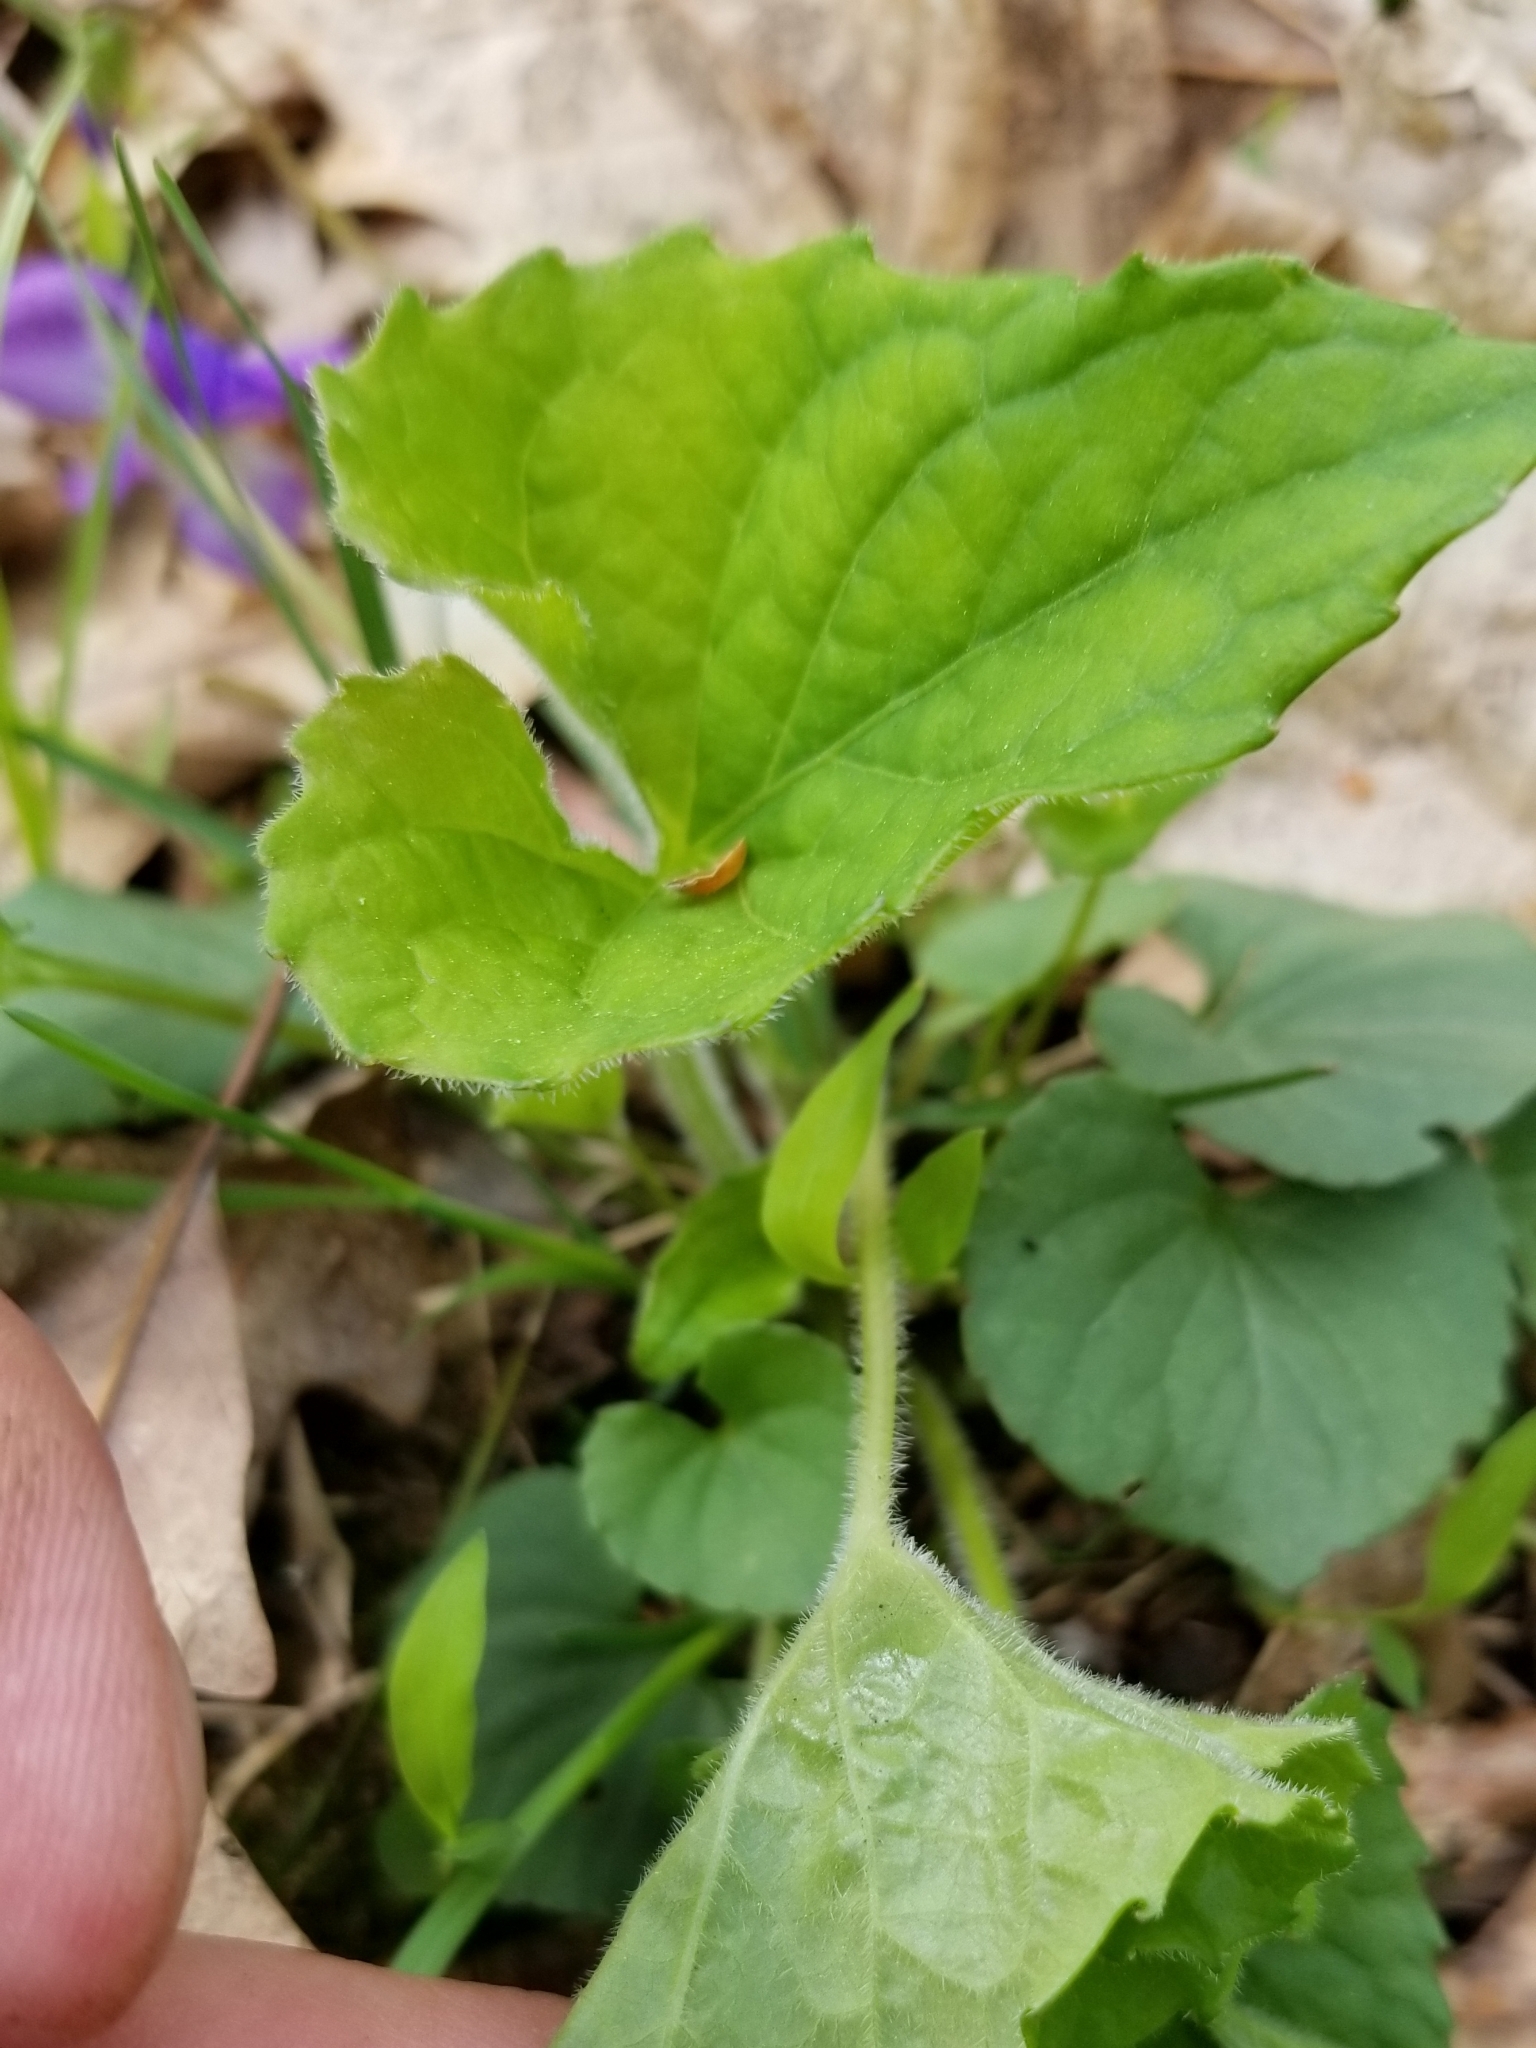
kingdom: Plantae
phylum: Tracheophyta
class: Magnoliopsida
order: Malpighiales
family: Violaceae
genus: Viola
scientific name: Viola sororia
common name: Dooryard violet
